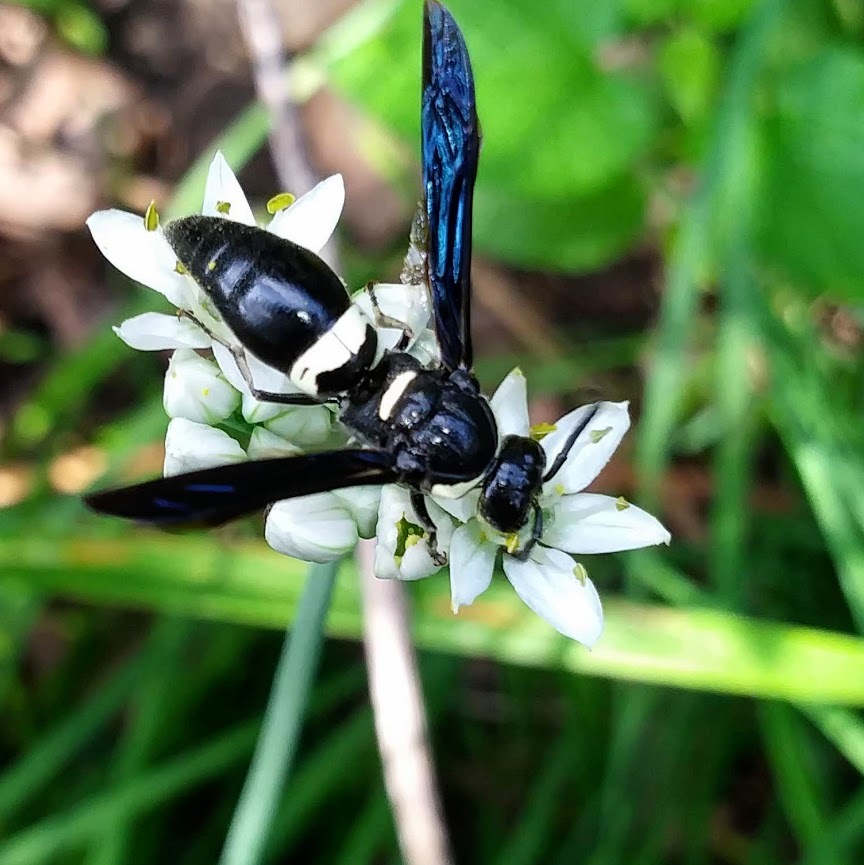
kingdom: Animalia
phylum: Arthropoda
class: Insecta
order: Hymenoptera
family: Eumenidae
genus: Monobia
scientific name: Monobia quadridens
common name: Four-toothed mason wasp
